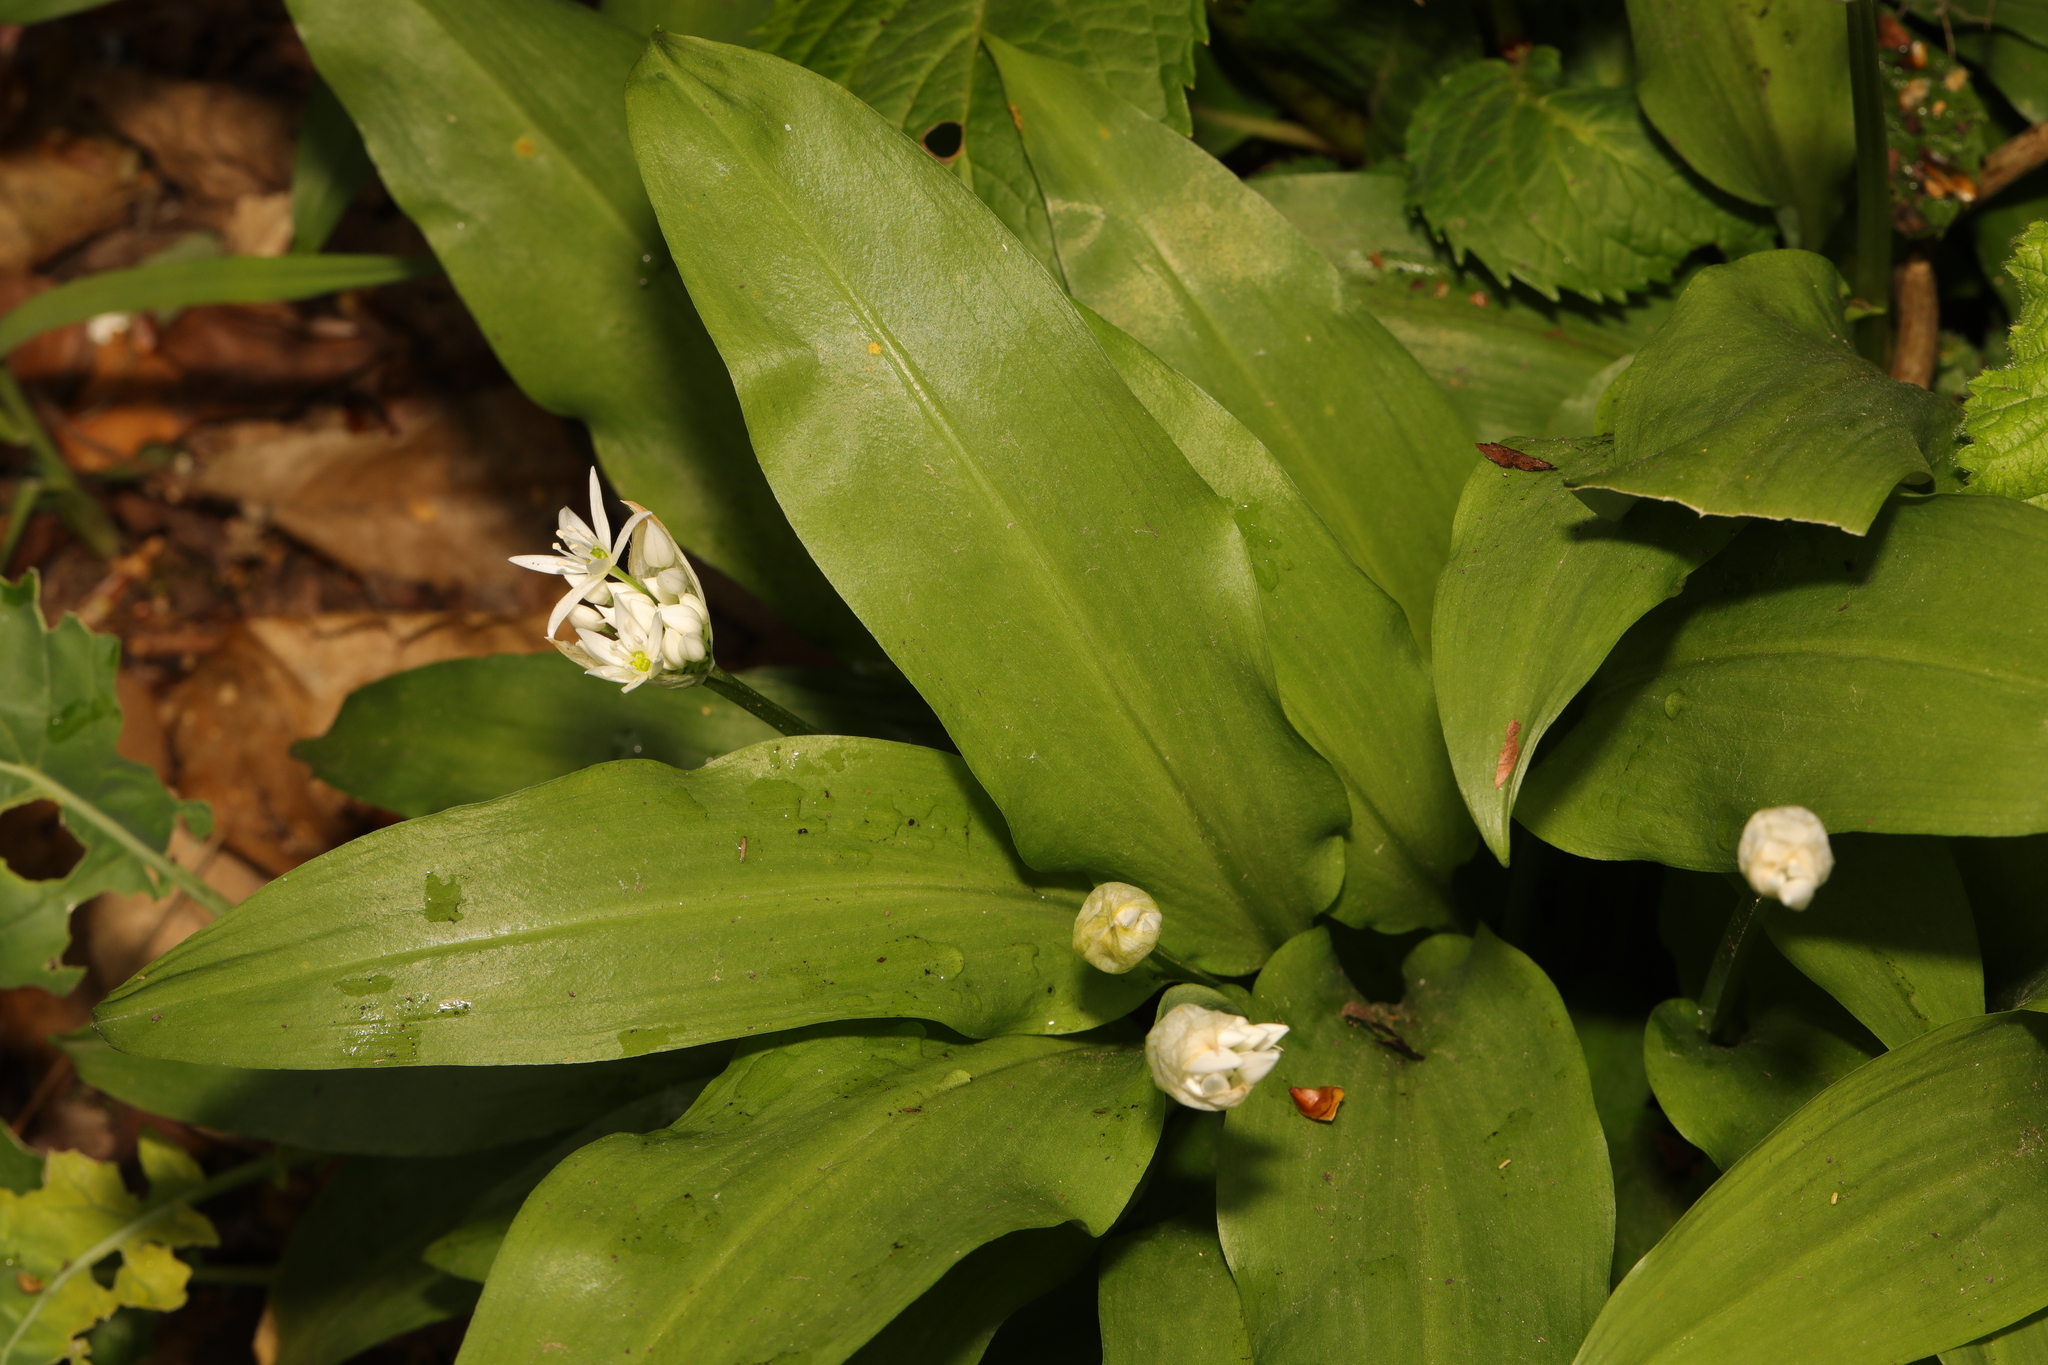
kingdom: Plantae
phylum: Tracheophyta
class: Liliopsida
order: Asparagales
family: Amaryllidaceae
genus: Allium
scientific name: Allium ursinum
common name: Ramsons
